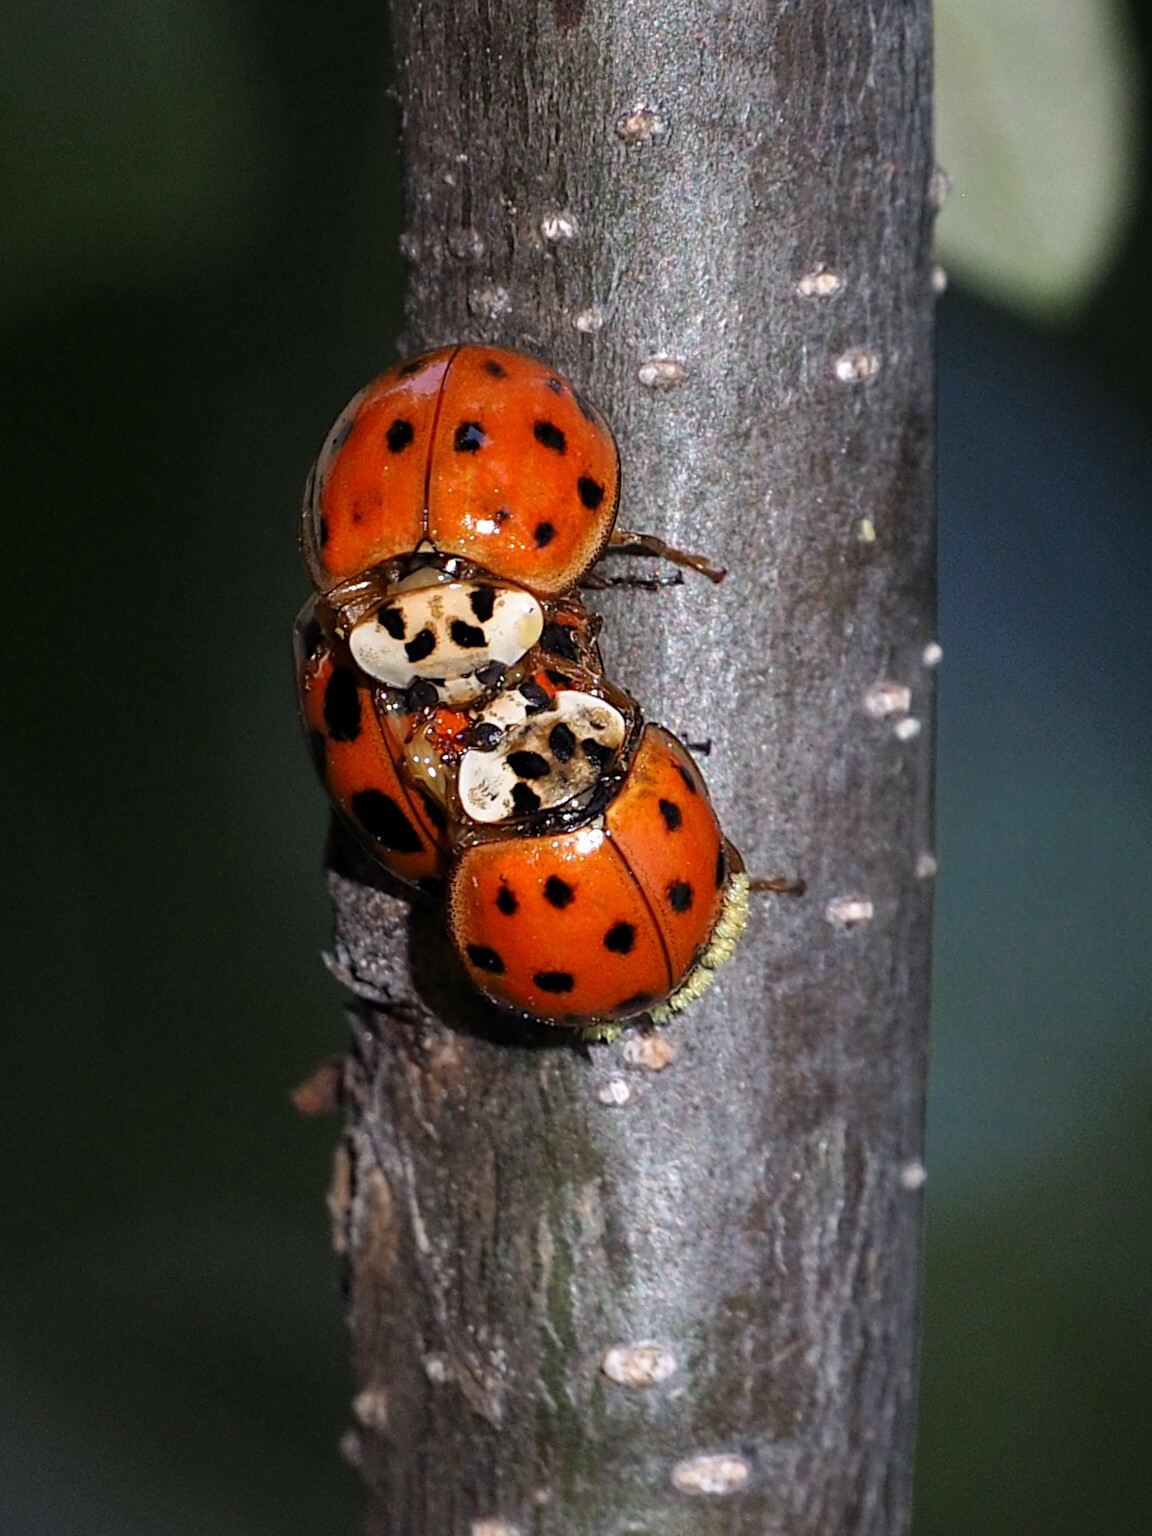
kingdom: Animalia
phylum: Arthropoda
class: Insecta
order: Coleoptera
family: Coccinellidae
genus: Harmonia
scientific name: Harmonia axyridis
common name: Harlequin ladybird
